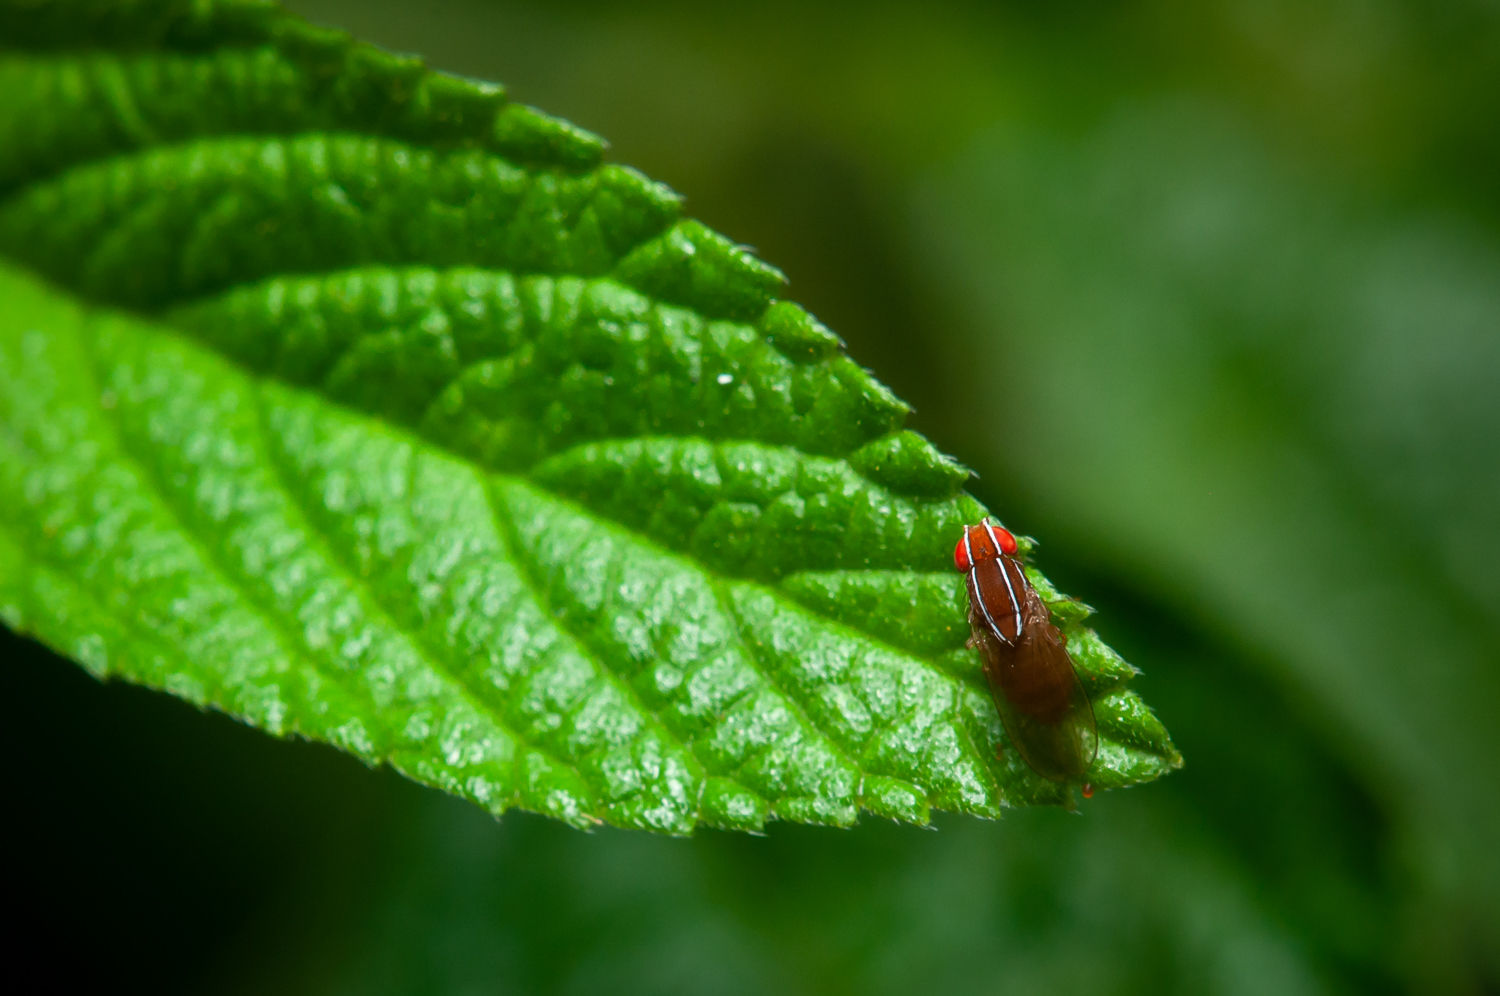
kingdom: Animalia
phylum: Arthropoda
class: Insecta
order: Diptera
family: Drosophilidae
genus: Zaprionus
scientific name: Zaprionus indianus
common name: African fig fly
